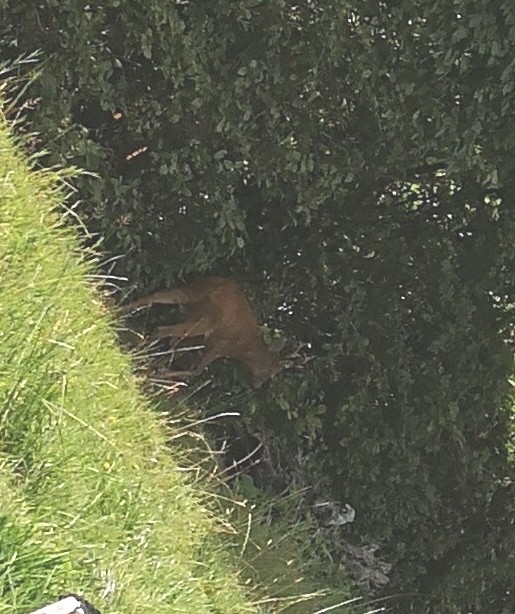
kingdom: Animalia
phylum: Chordata
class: Mammalia
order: Artiodactyla
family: Cervidae
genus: Capreolus
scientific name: Capreolus capreolus
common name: Western roe deer
